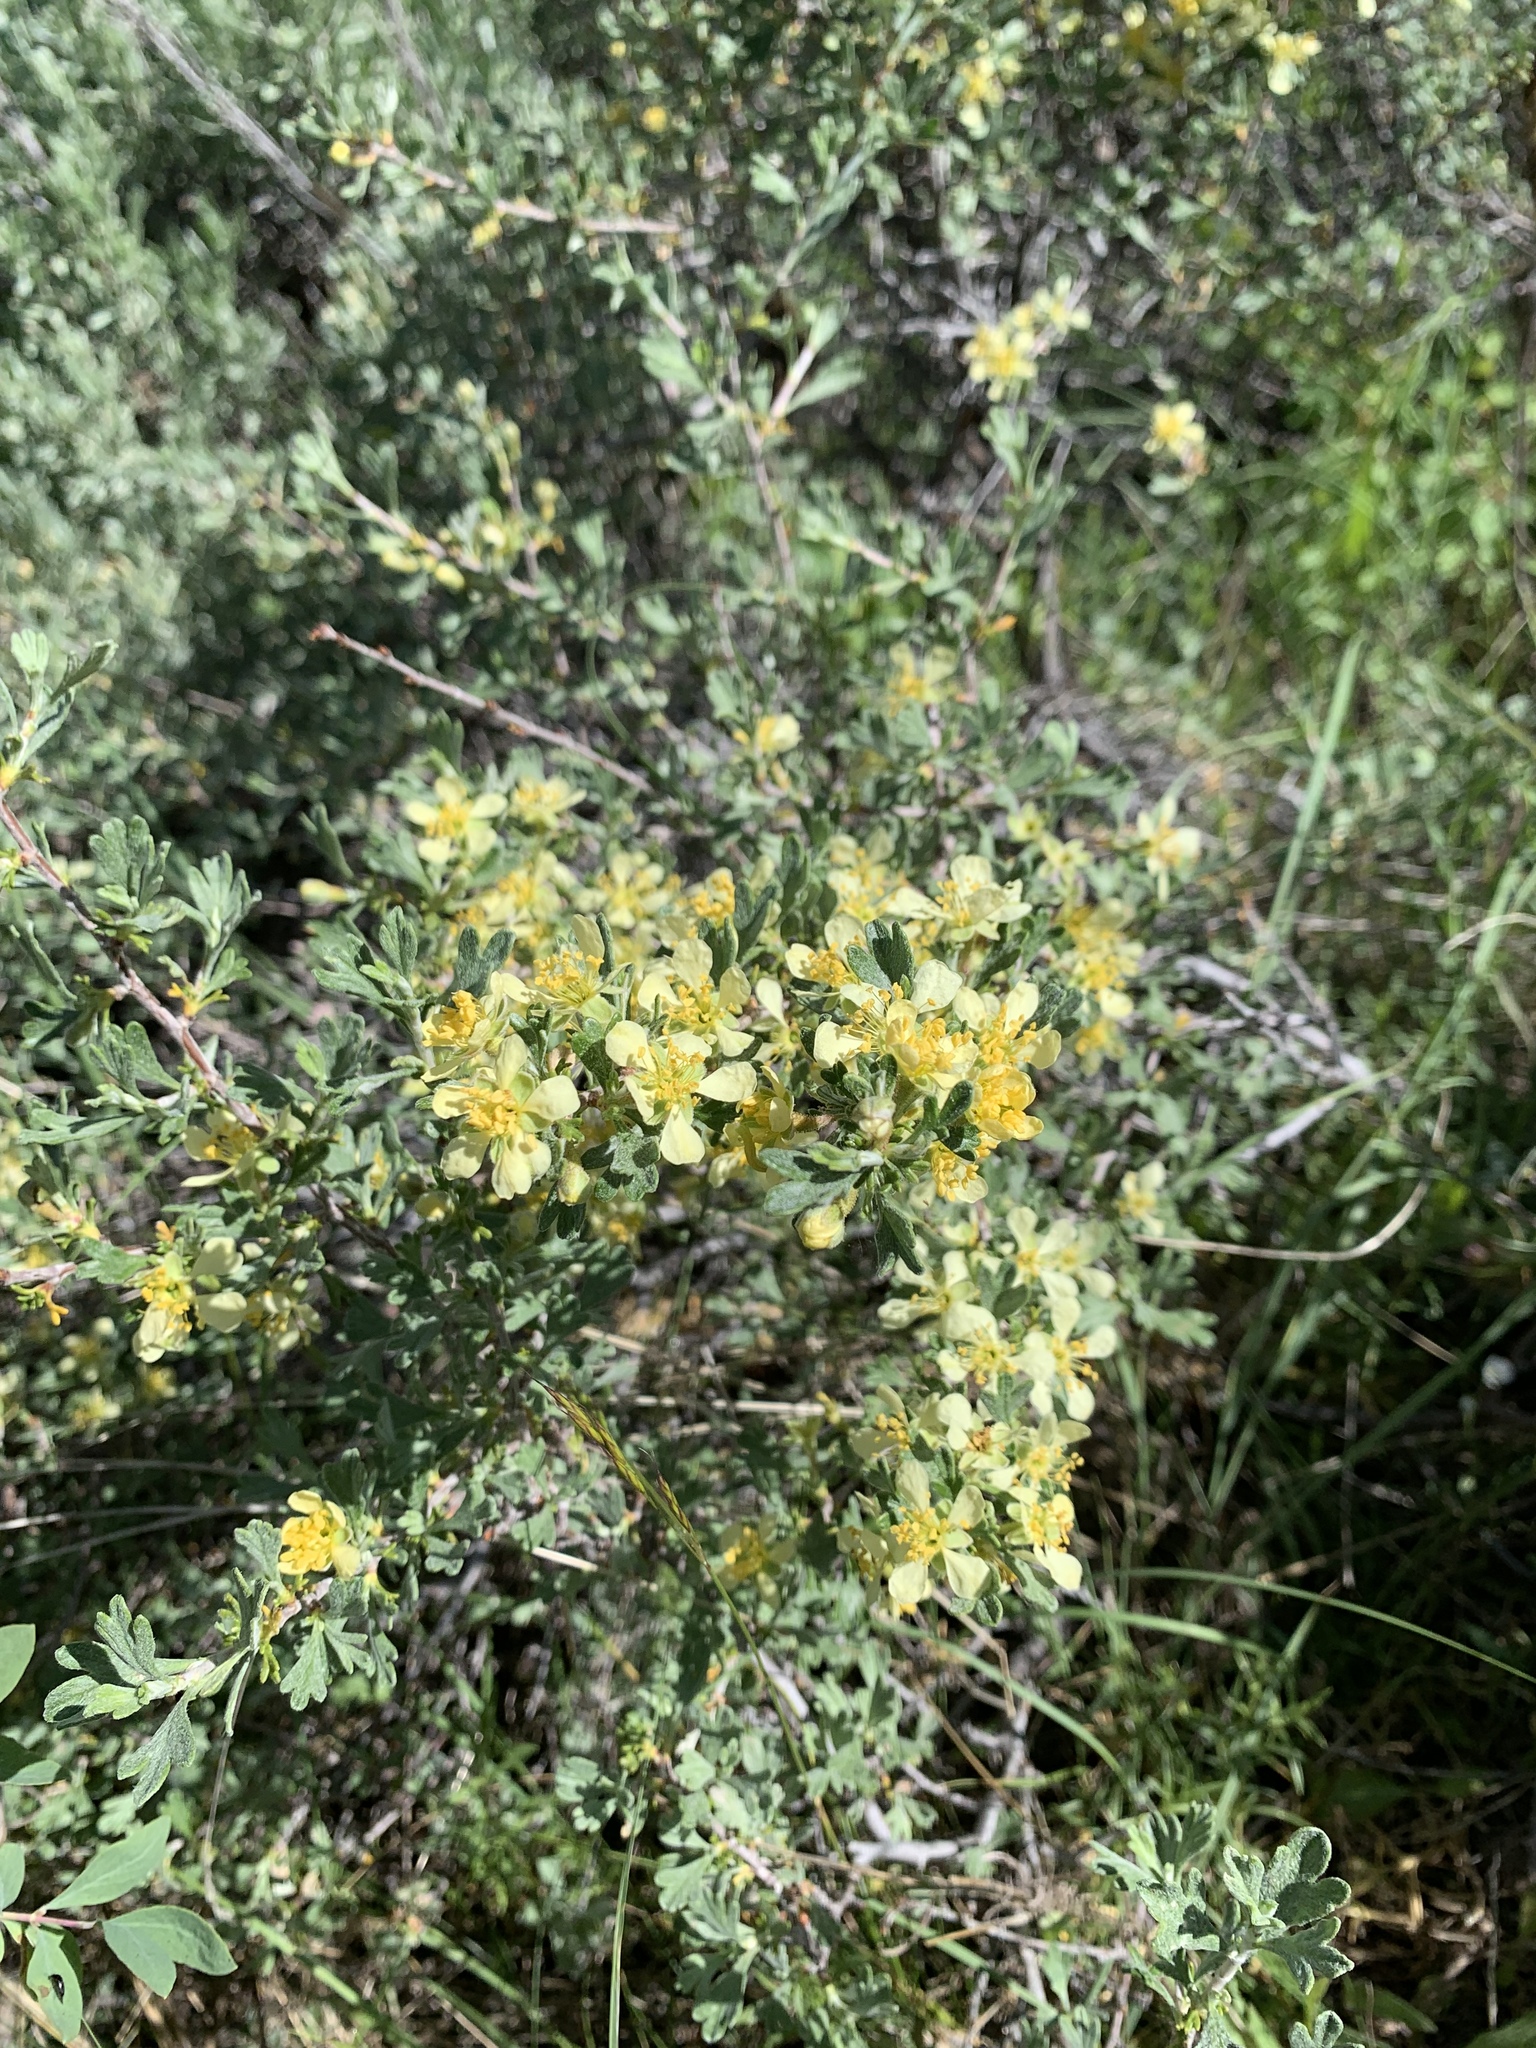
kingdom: Plantae
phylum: Tracheophyta
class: Magnoliopsida
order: Rosales
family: Rosaceae
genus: Purshia
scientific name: Purshia tridentata
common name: Antelope bitterbrush
